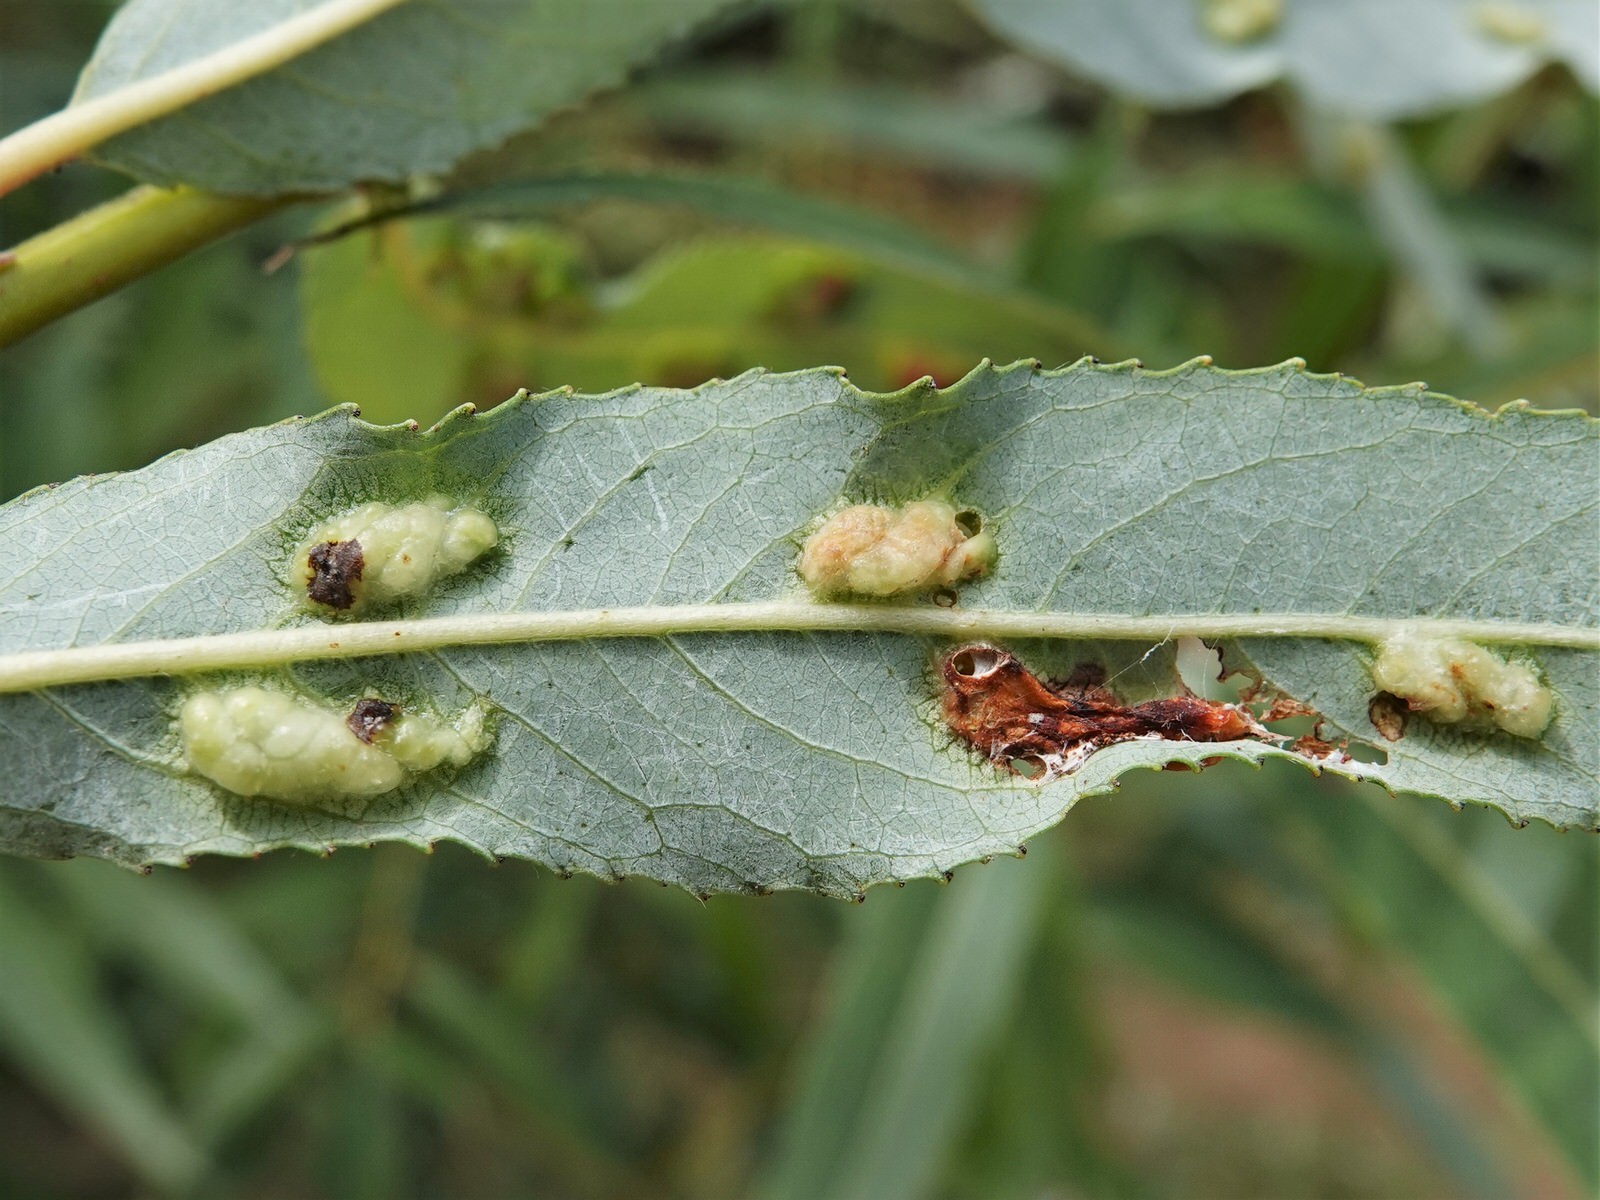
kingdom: Animalia
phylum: Arthropoda
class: Insecta
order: Hymenoptera
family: Tenthredinidae
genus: Pontania
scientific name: Pontania proxima
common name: Common sawfly
